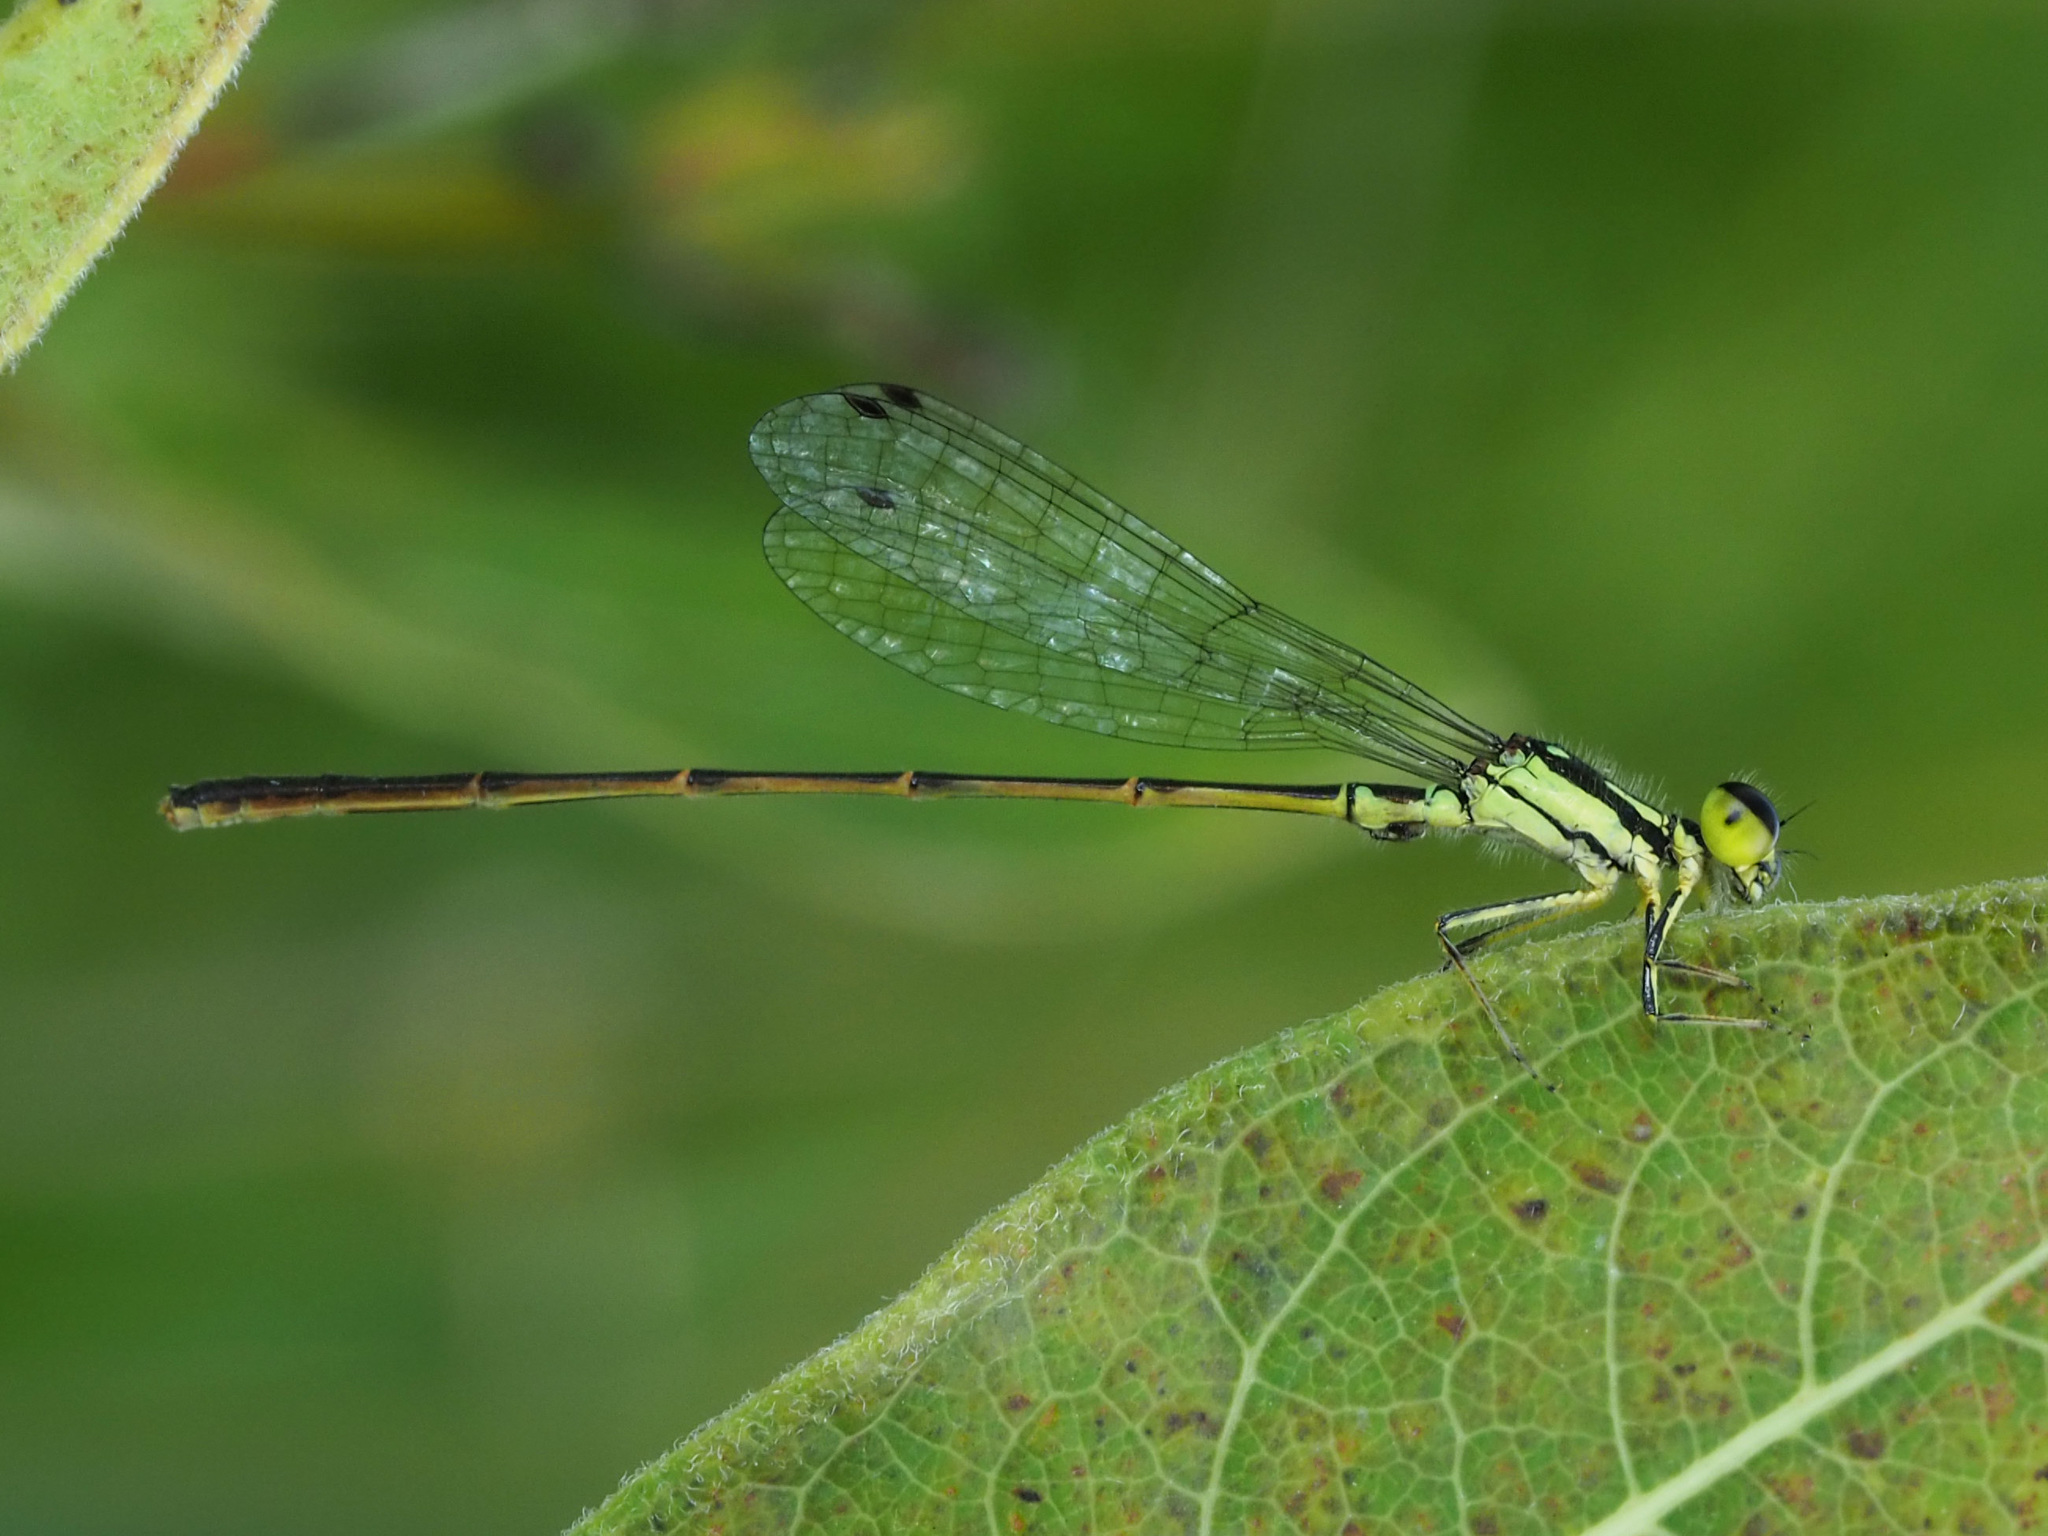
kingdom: Animalia
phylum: Arthropoda
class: Insecta
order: Odonata
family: Coenagrionidae
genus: Ischnura
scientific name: Ischnura posita
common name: Fragile forktail
